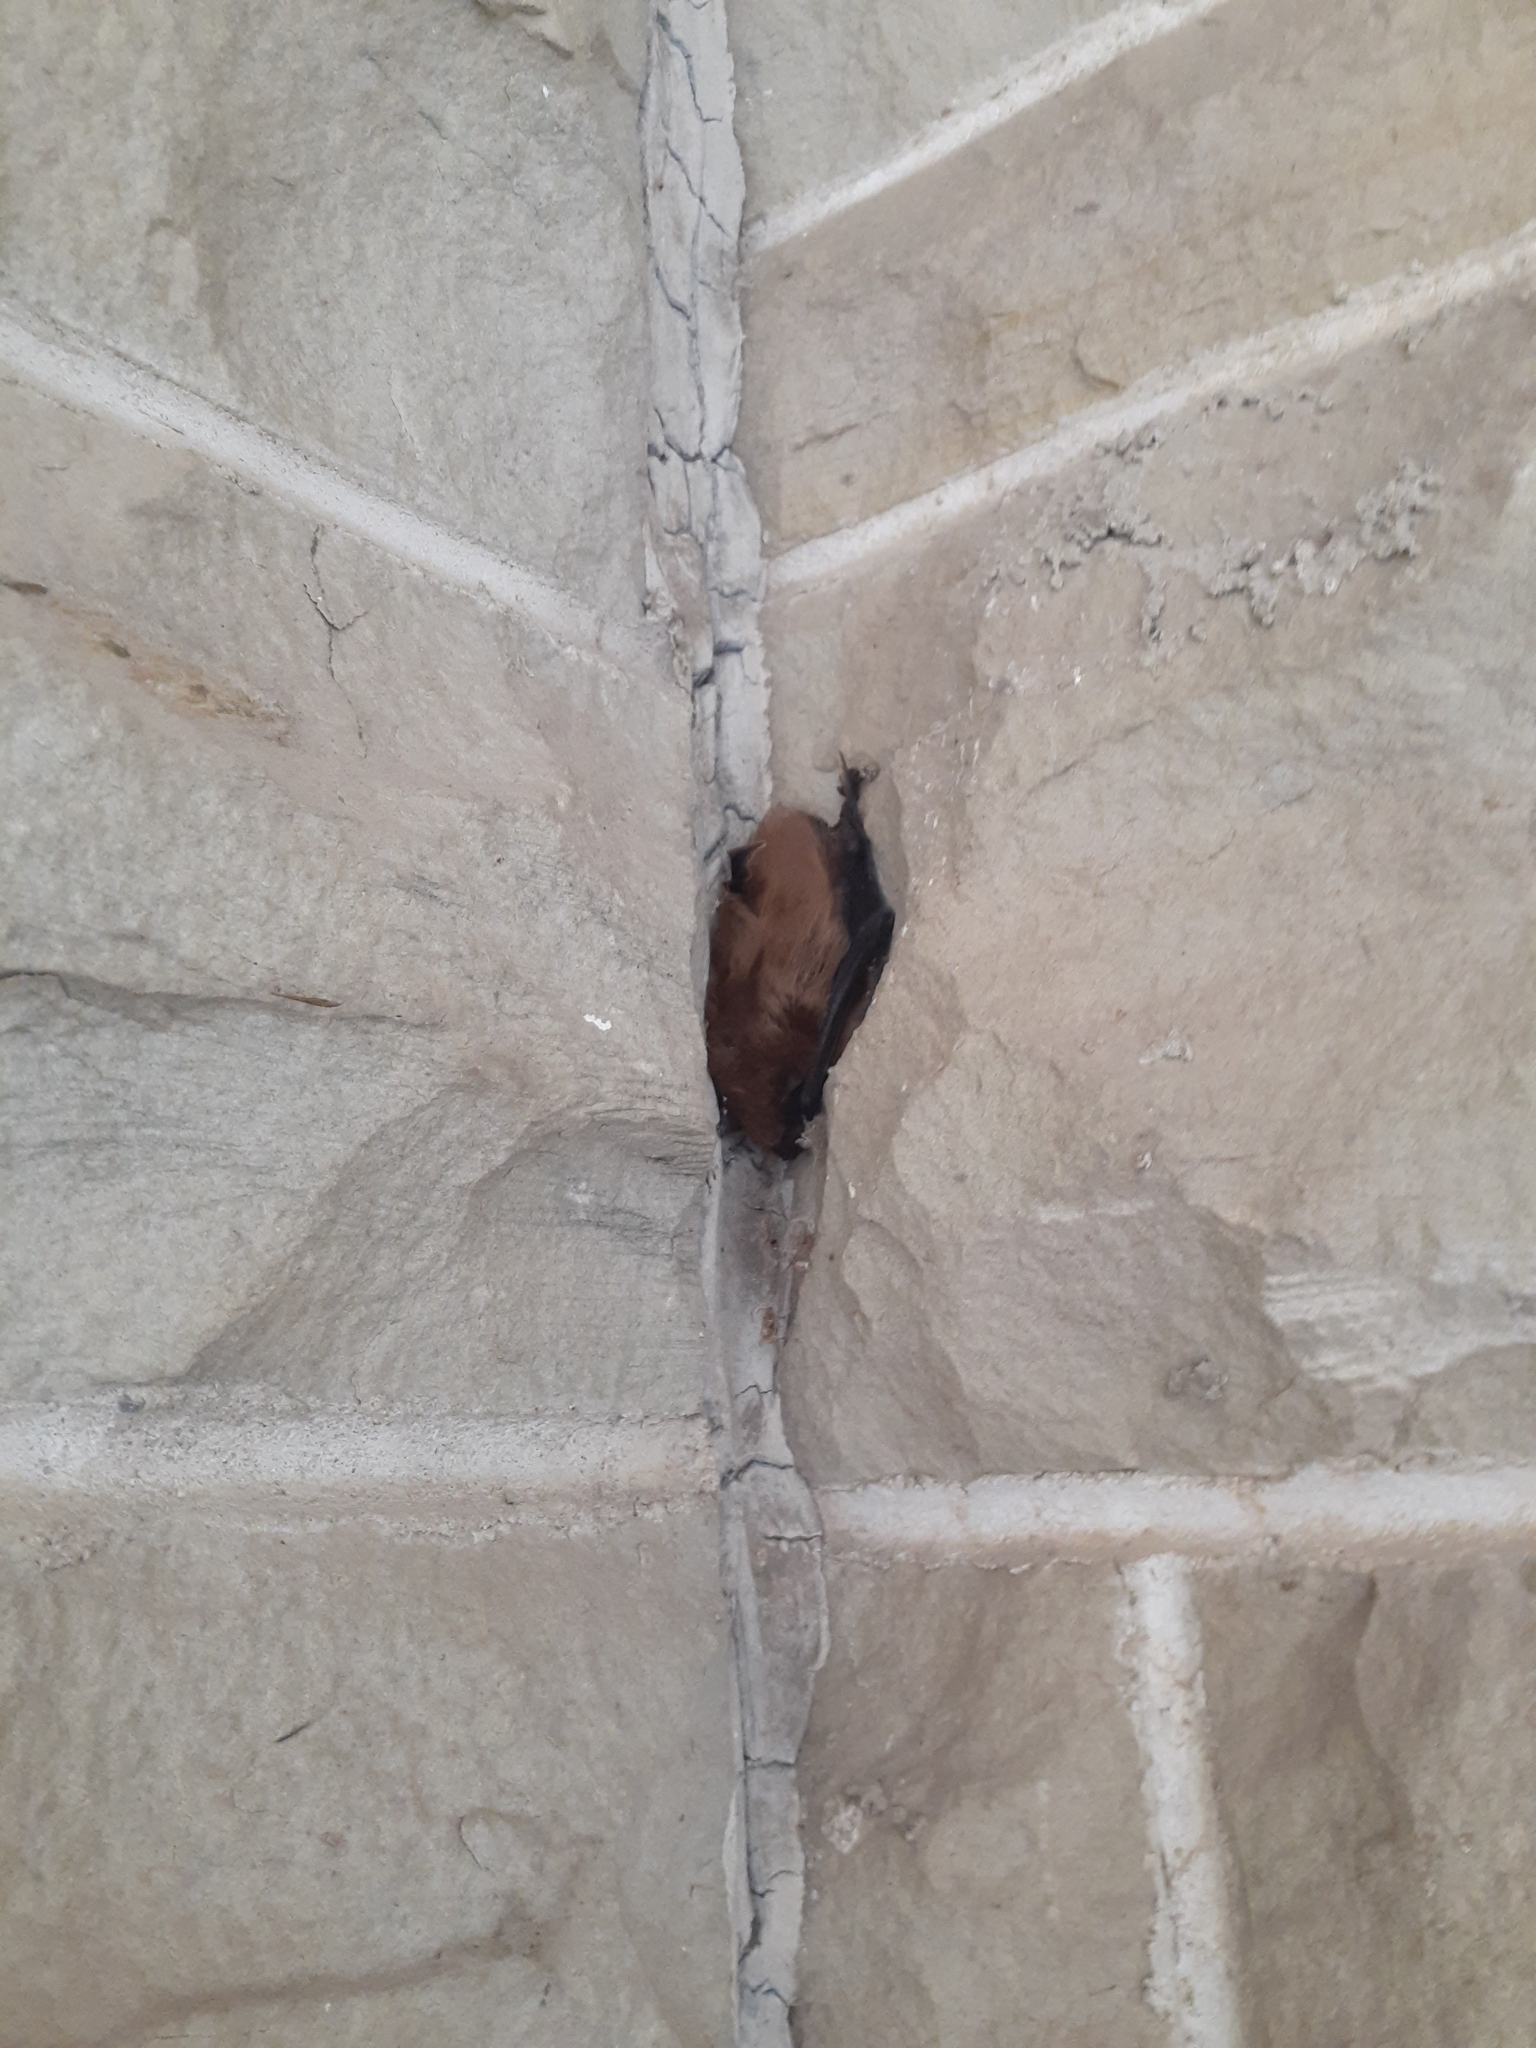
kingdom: Animalia
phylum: Chordata
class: Mammalia
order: Chiroptera
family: Vespertilionidae
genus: Eptesicus
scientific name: Eptesicus fuscus
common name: Big brown bat
